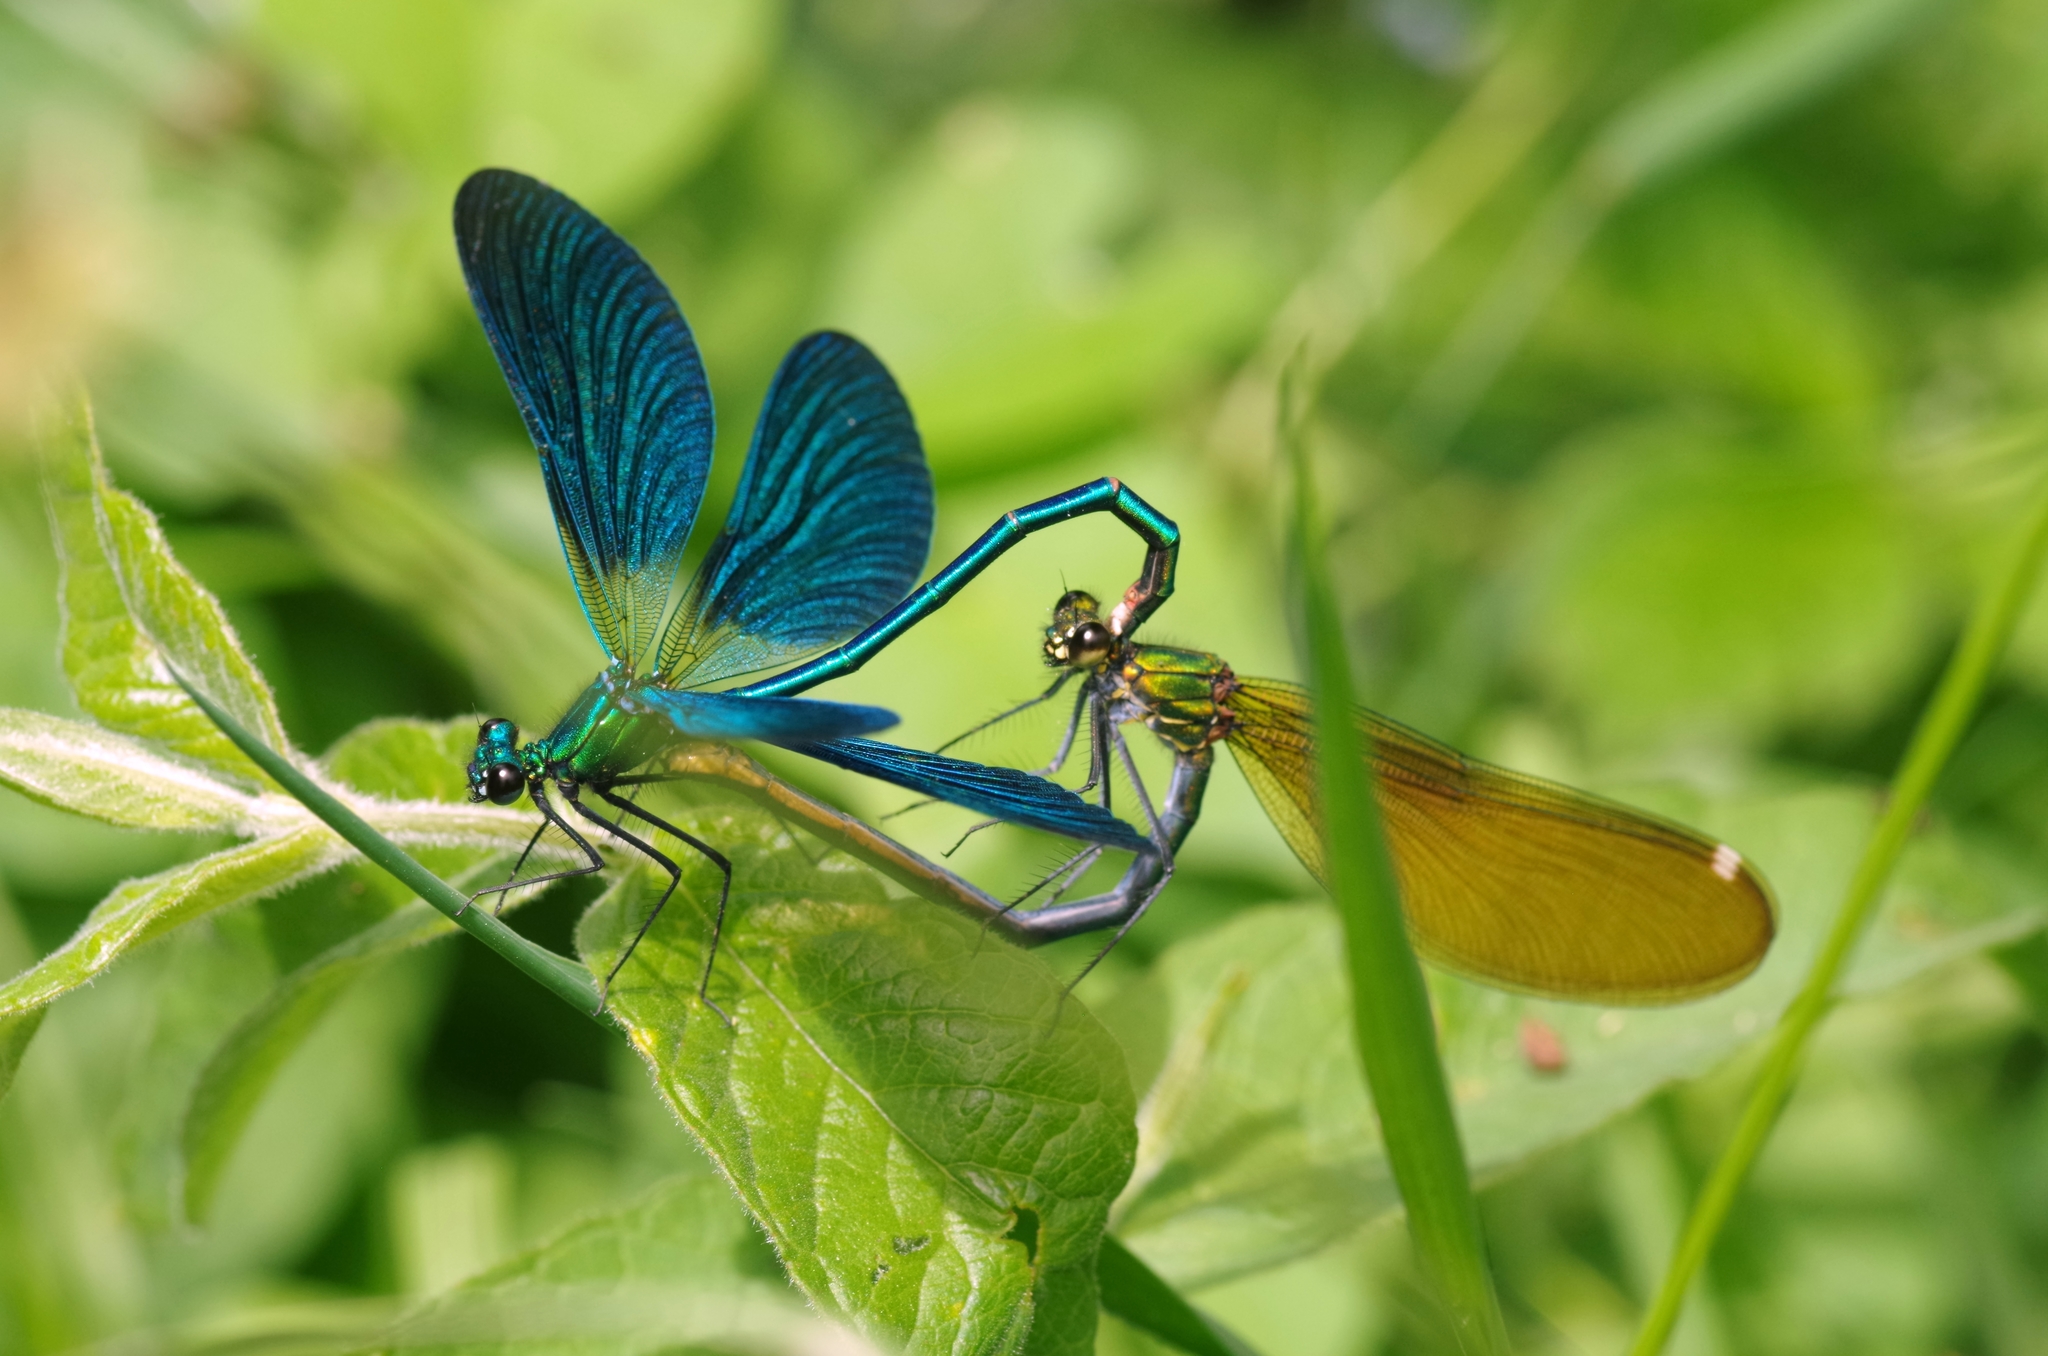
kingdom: Animalia
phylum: Arthropoda
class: Insecta
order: Odonata
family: Calopterygidae
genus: Calopteryx
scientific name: Calopteryx virgo
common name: Beautiful demoiselle
